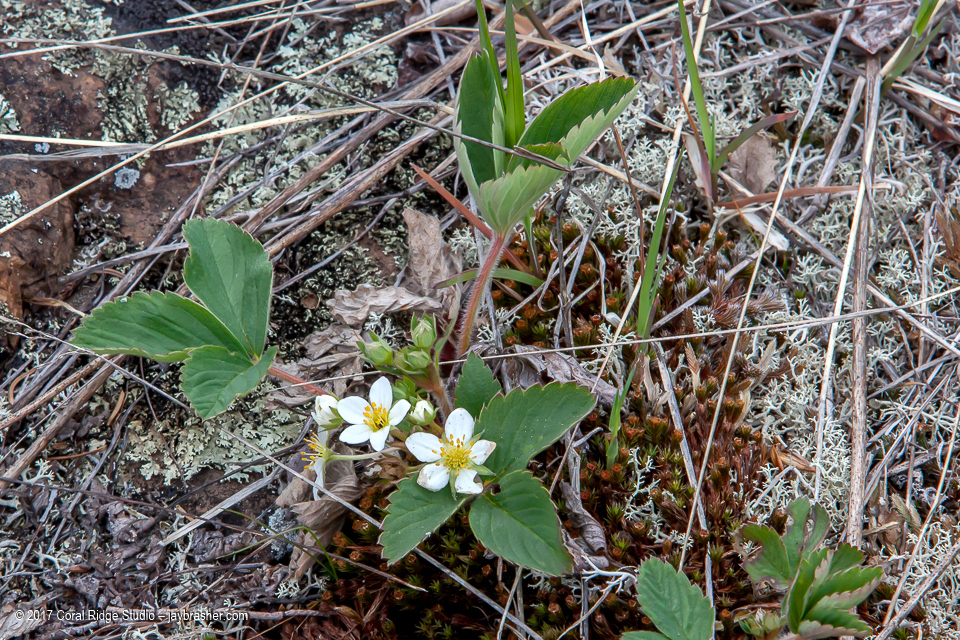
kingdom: Plantae
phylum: Tracheophyta
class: Magnoliopsida
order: Rosales
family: Rosaceae
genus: Fragaria
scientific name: Fragaria virginiana
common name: Thickleaved wild strawberry
